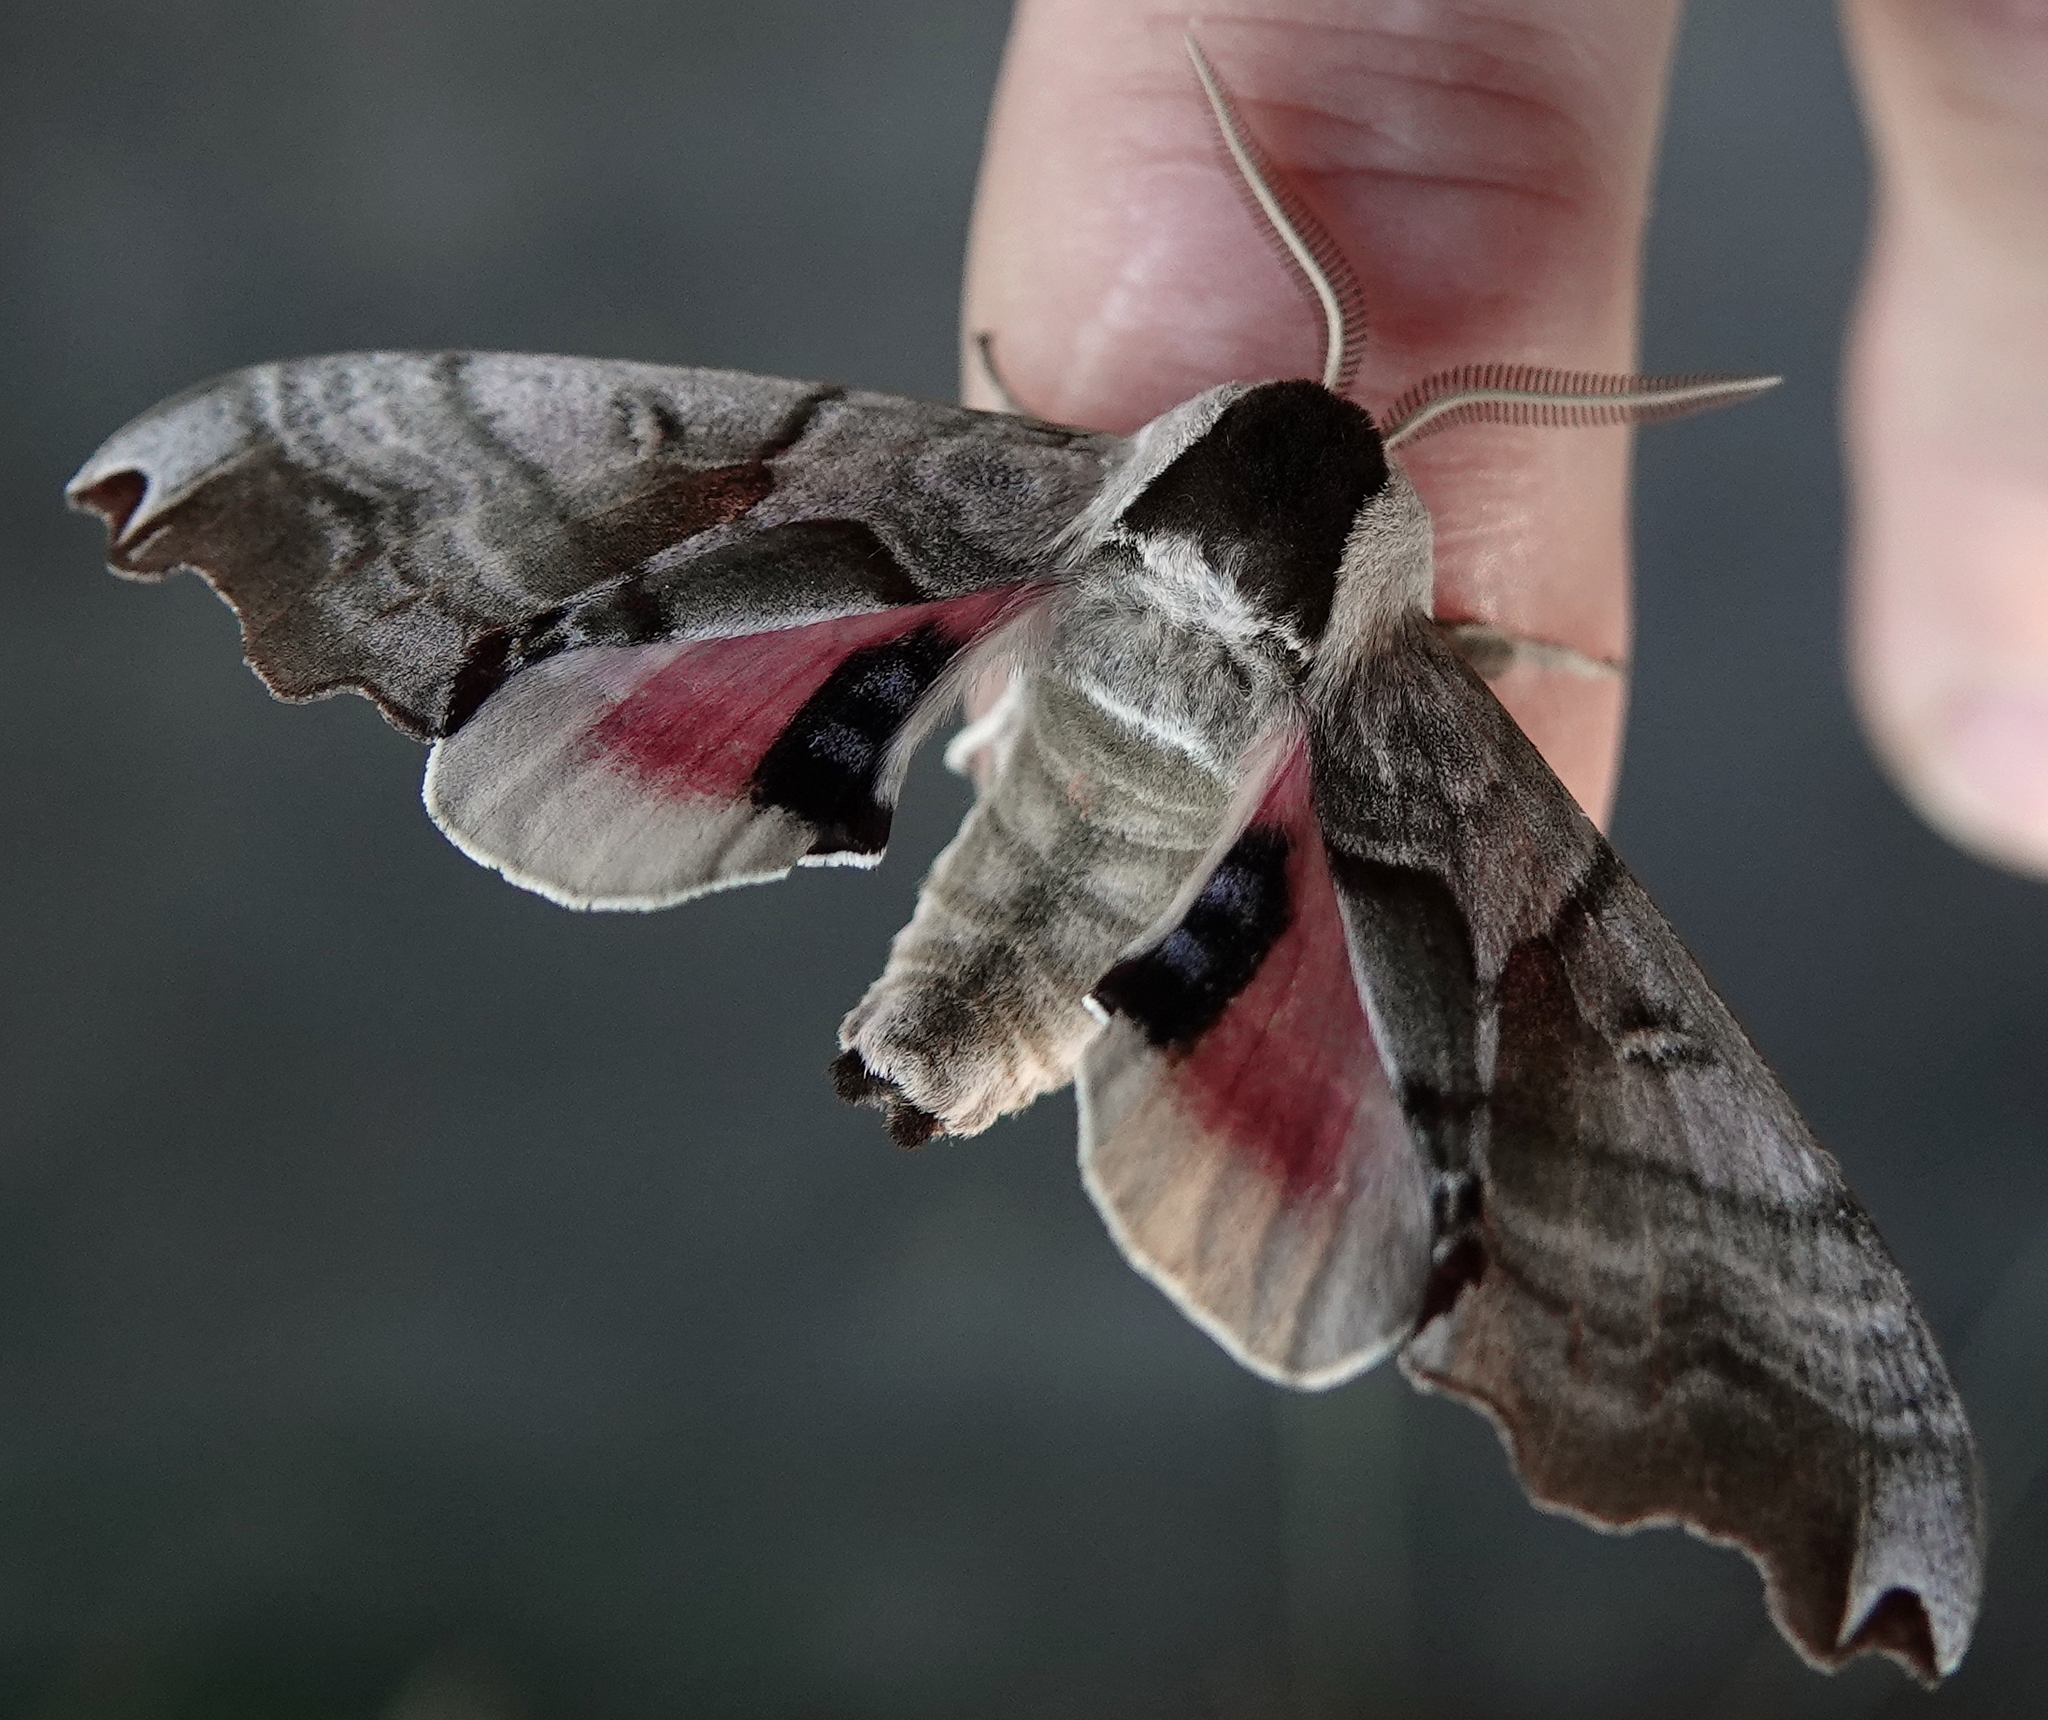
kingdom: Animalia
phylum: Arthropoda
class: Insecta
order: Lepidoptera
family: Sphingidae
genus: Smerinthus
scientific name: Smerinthus jamaicensis
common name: Twin spotted sphinx
